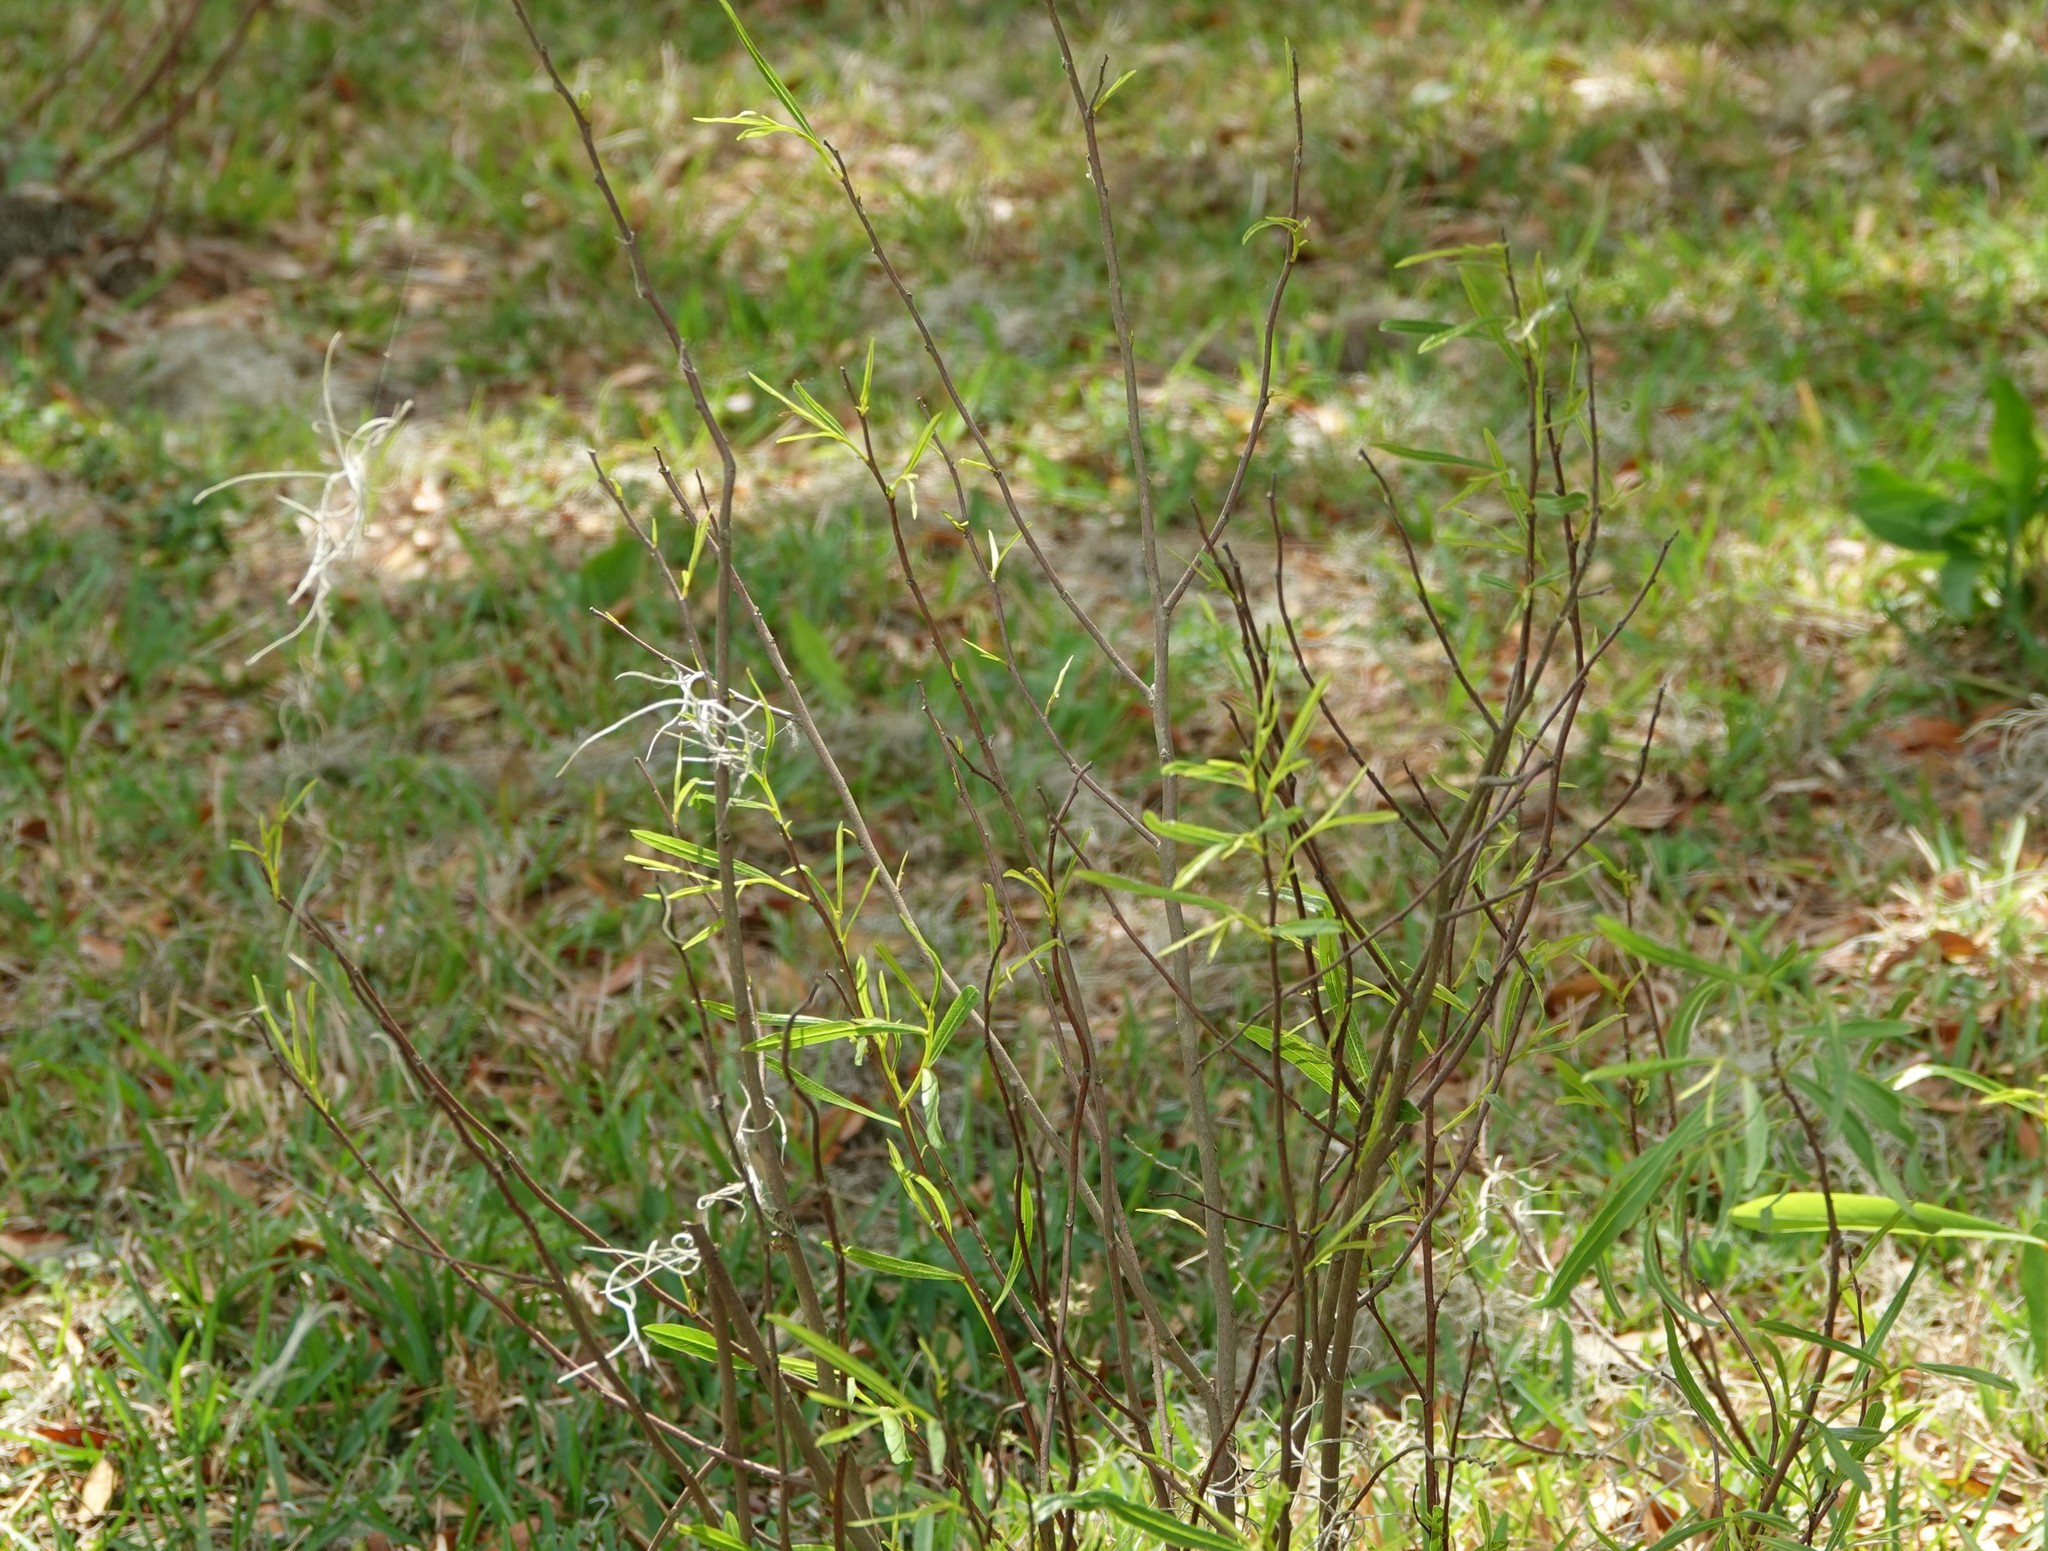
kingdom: Plantae
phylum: Tracheophyta
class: Magnoliopsida
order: Magnoliales
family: Annonaceae
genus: Asimina
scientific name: Asimina bethanyensis
